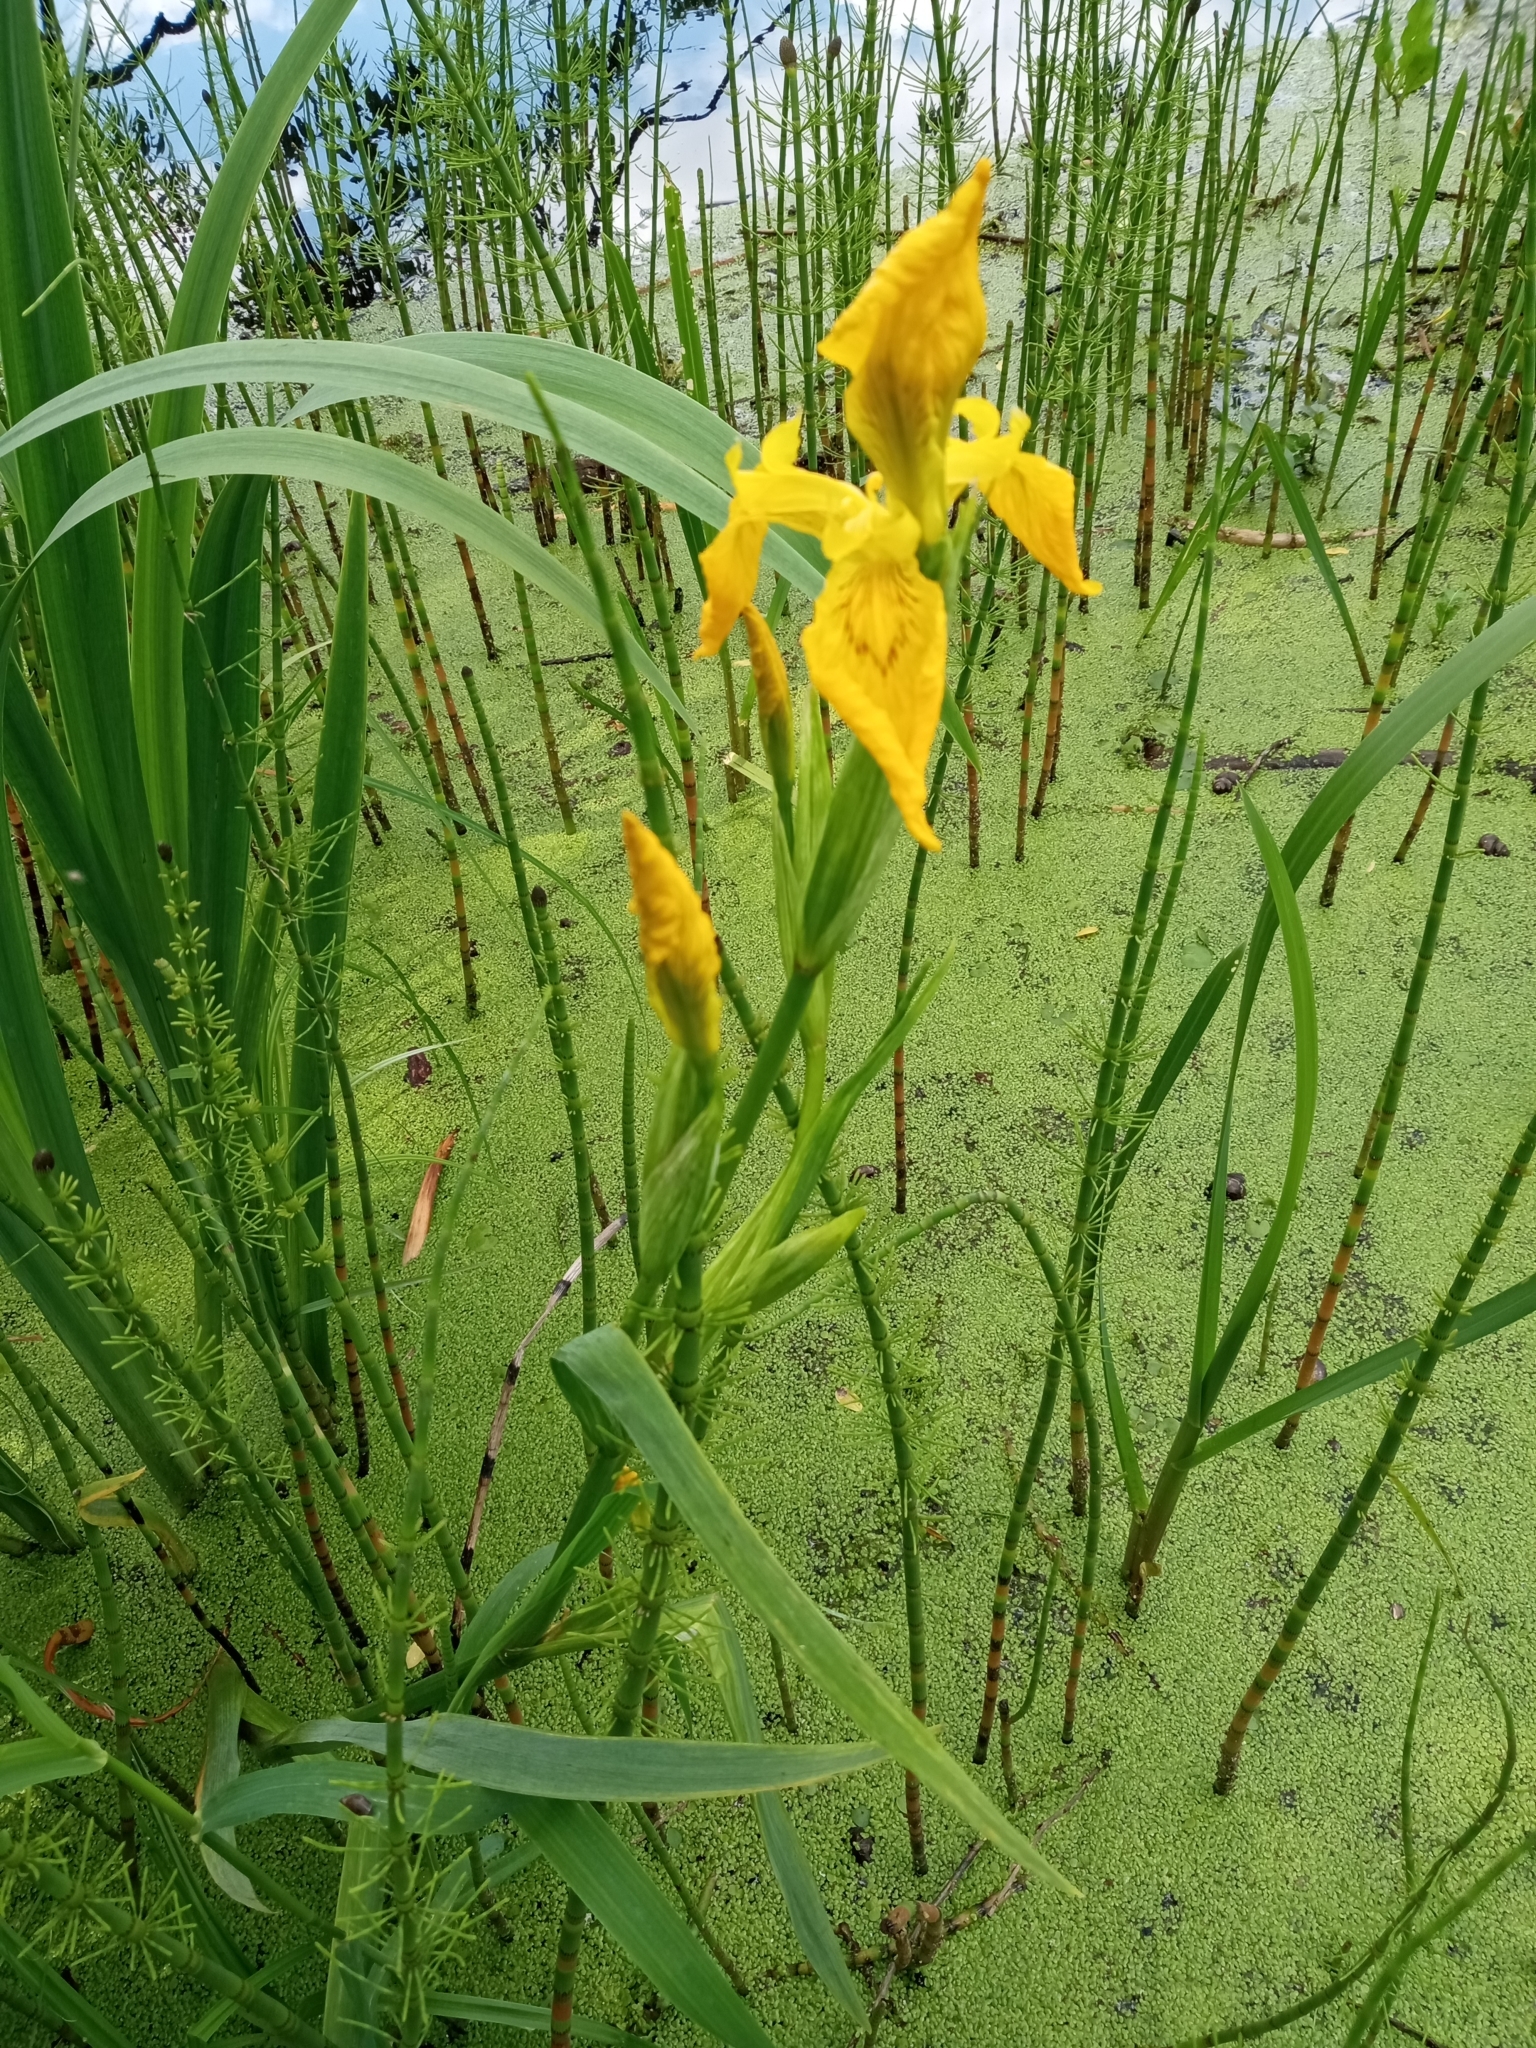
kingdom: Plantae
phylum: Tracheophyta
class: Liliopsida
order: Asparagales
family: Iridaceae
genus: Iris
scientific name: Iris pseudacorus
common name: Yellow flag
